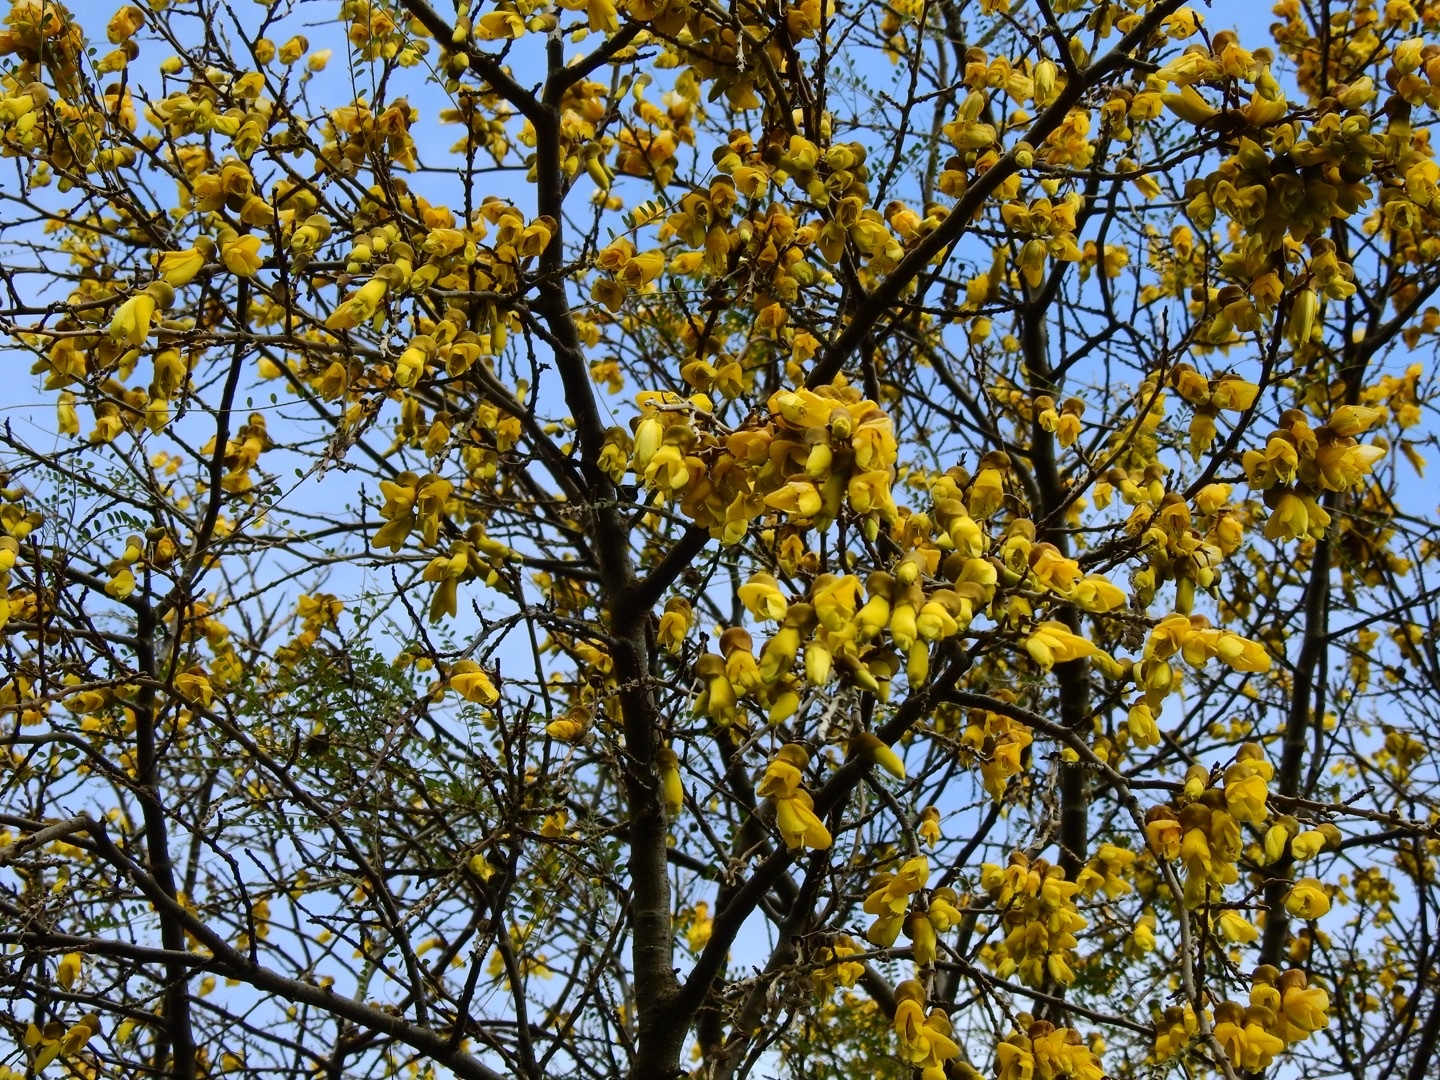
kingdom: Plantae
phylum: Tracheophyta
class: Magnoliopsida
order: Fabales
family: Fabaceae
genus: Sophora
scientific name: Sophora microphylla
